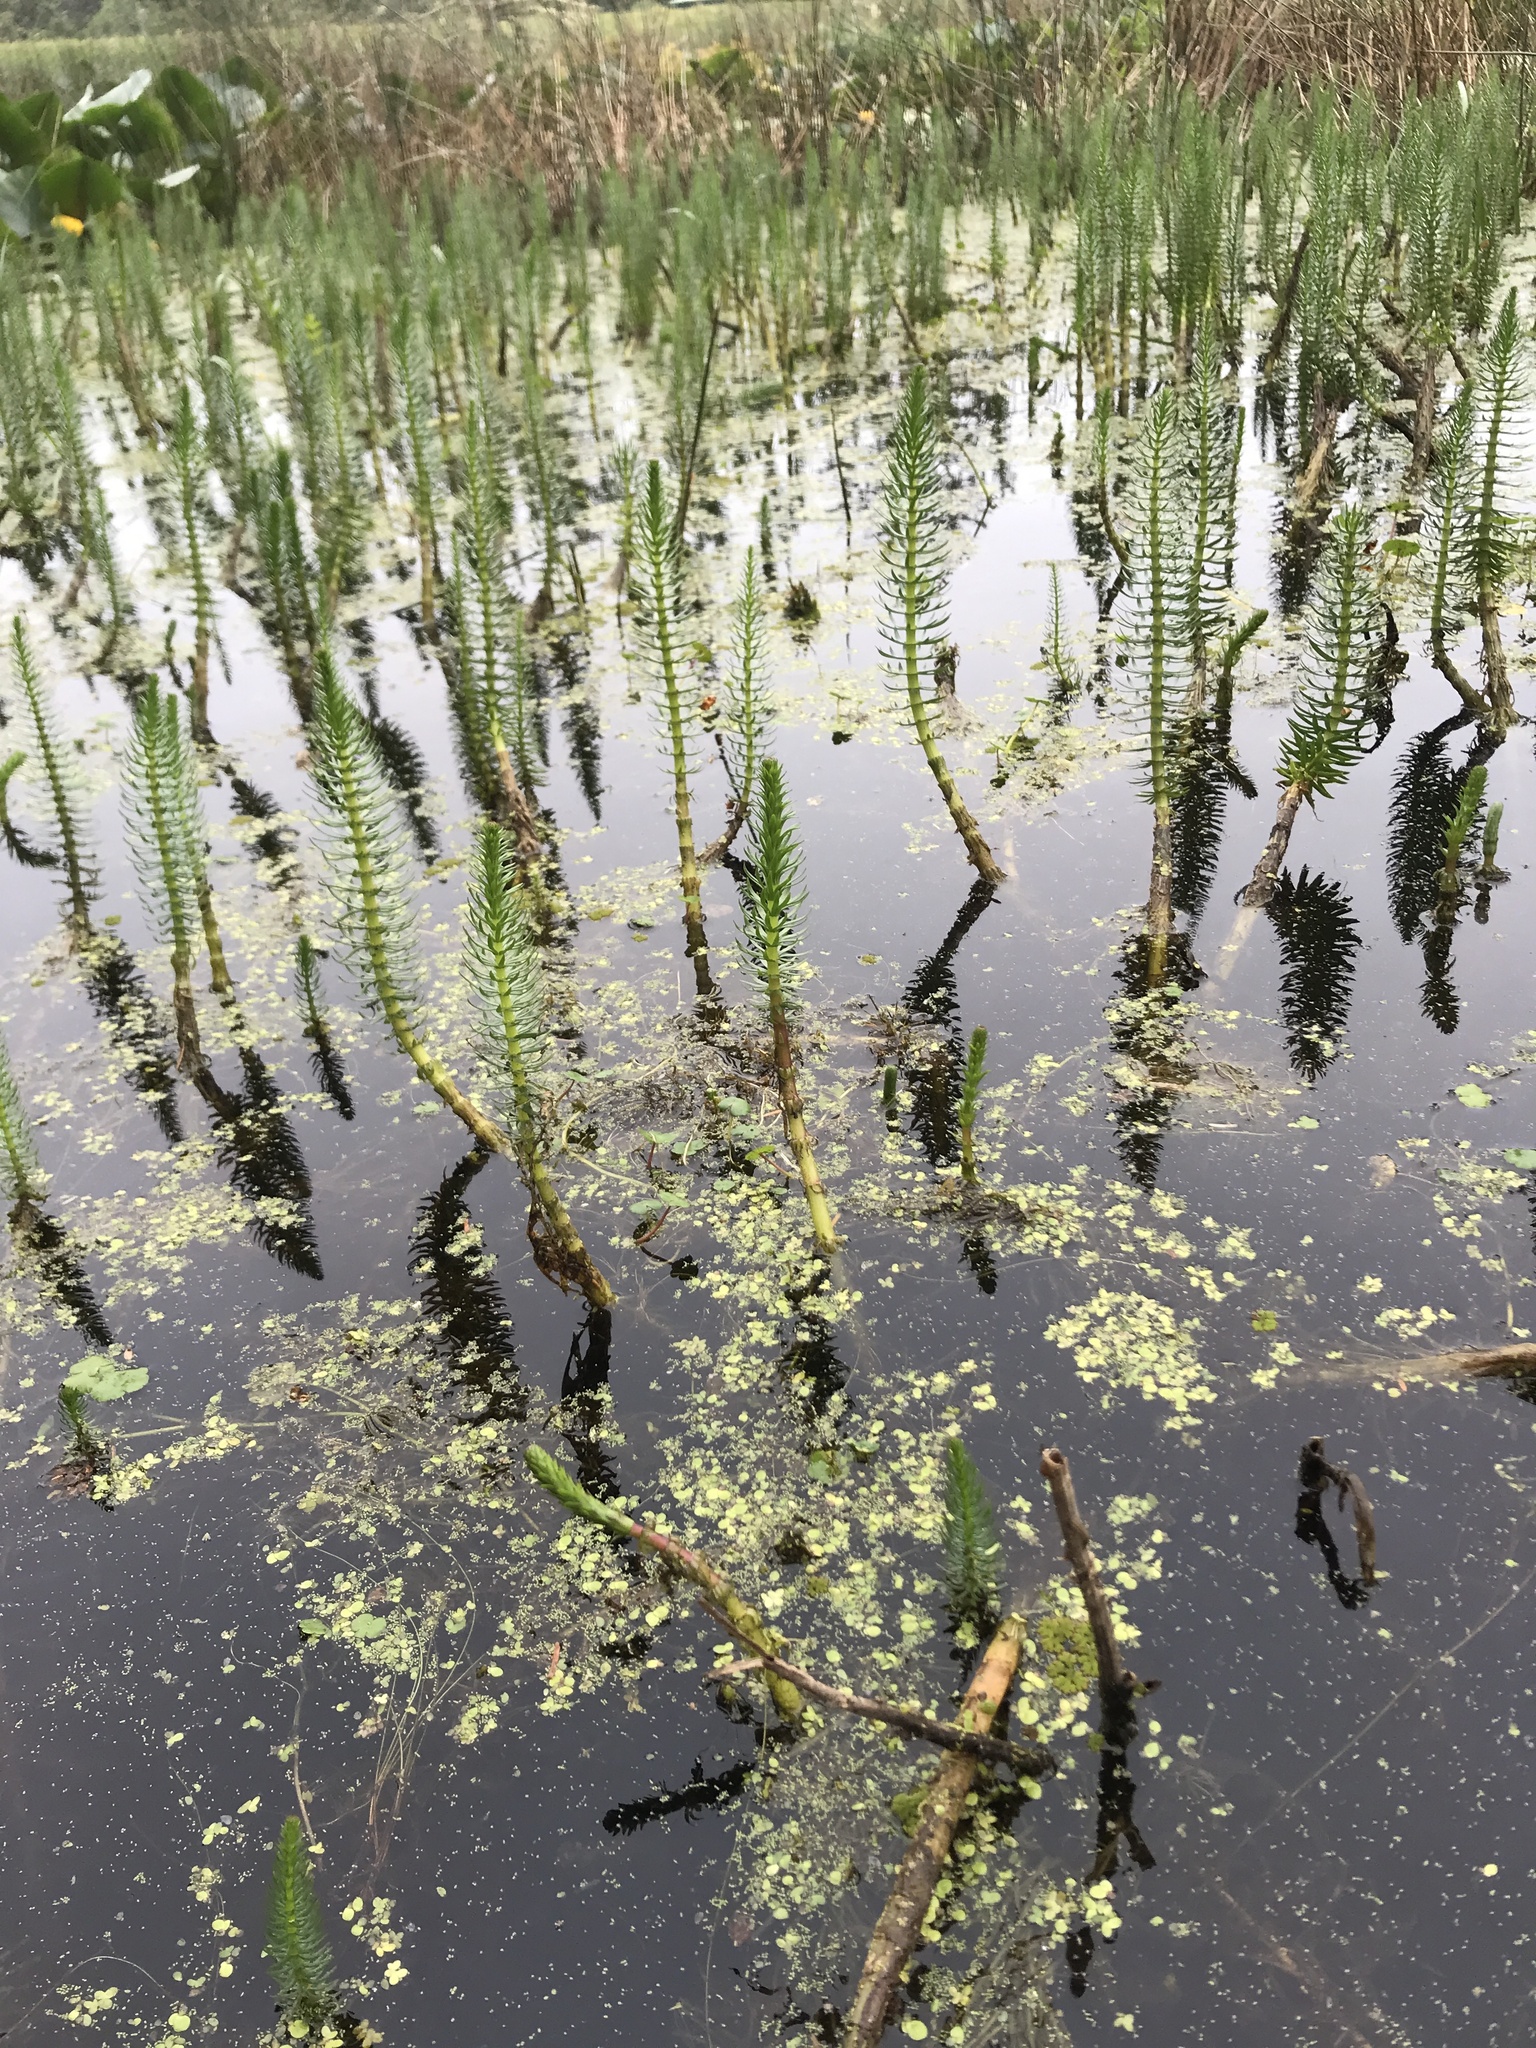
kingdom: Plantae
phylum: Tracheophyta
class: Magnoliopsida
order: Lamiales
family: Plantaginaceae
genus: Hippuris
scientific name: Hippuris vulgaris
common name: Mare's-tail
